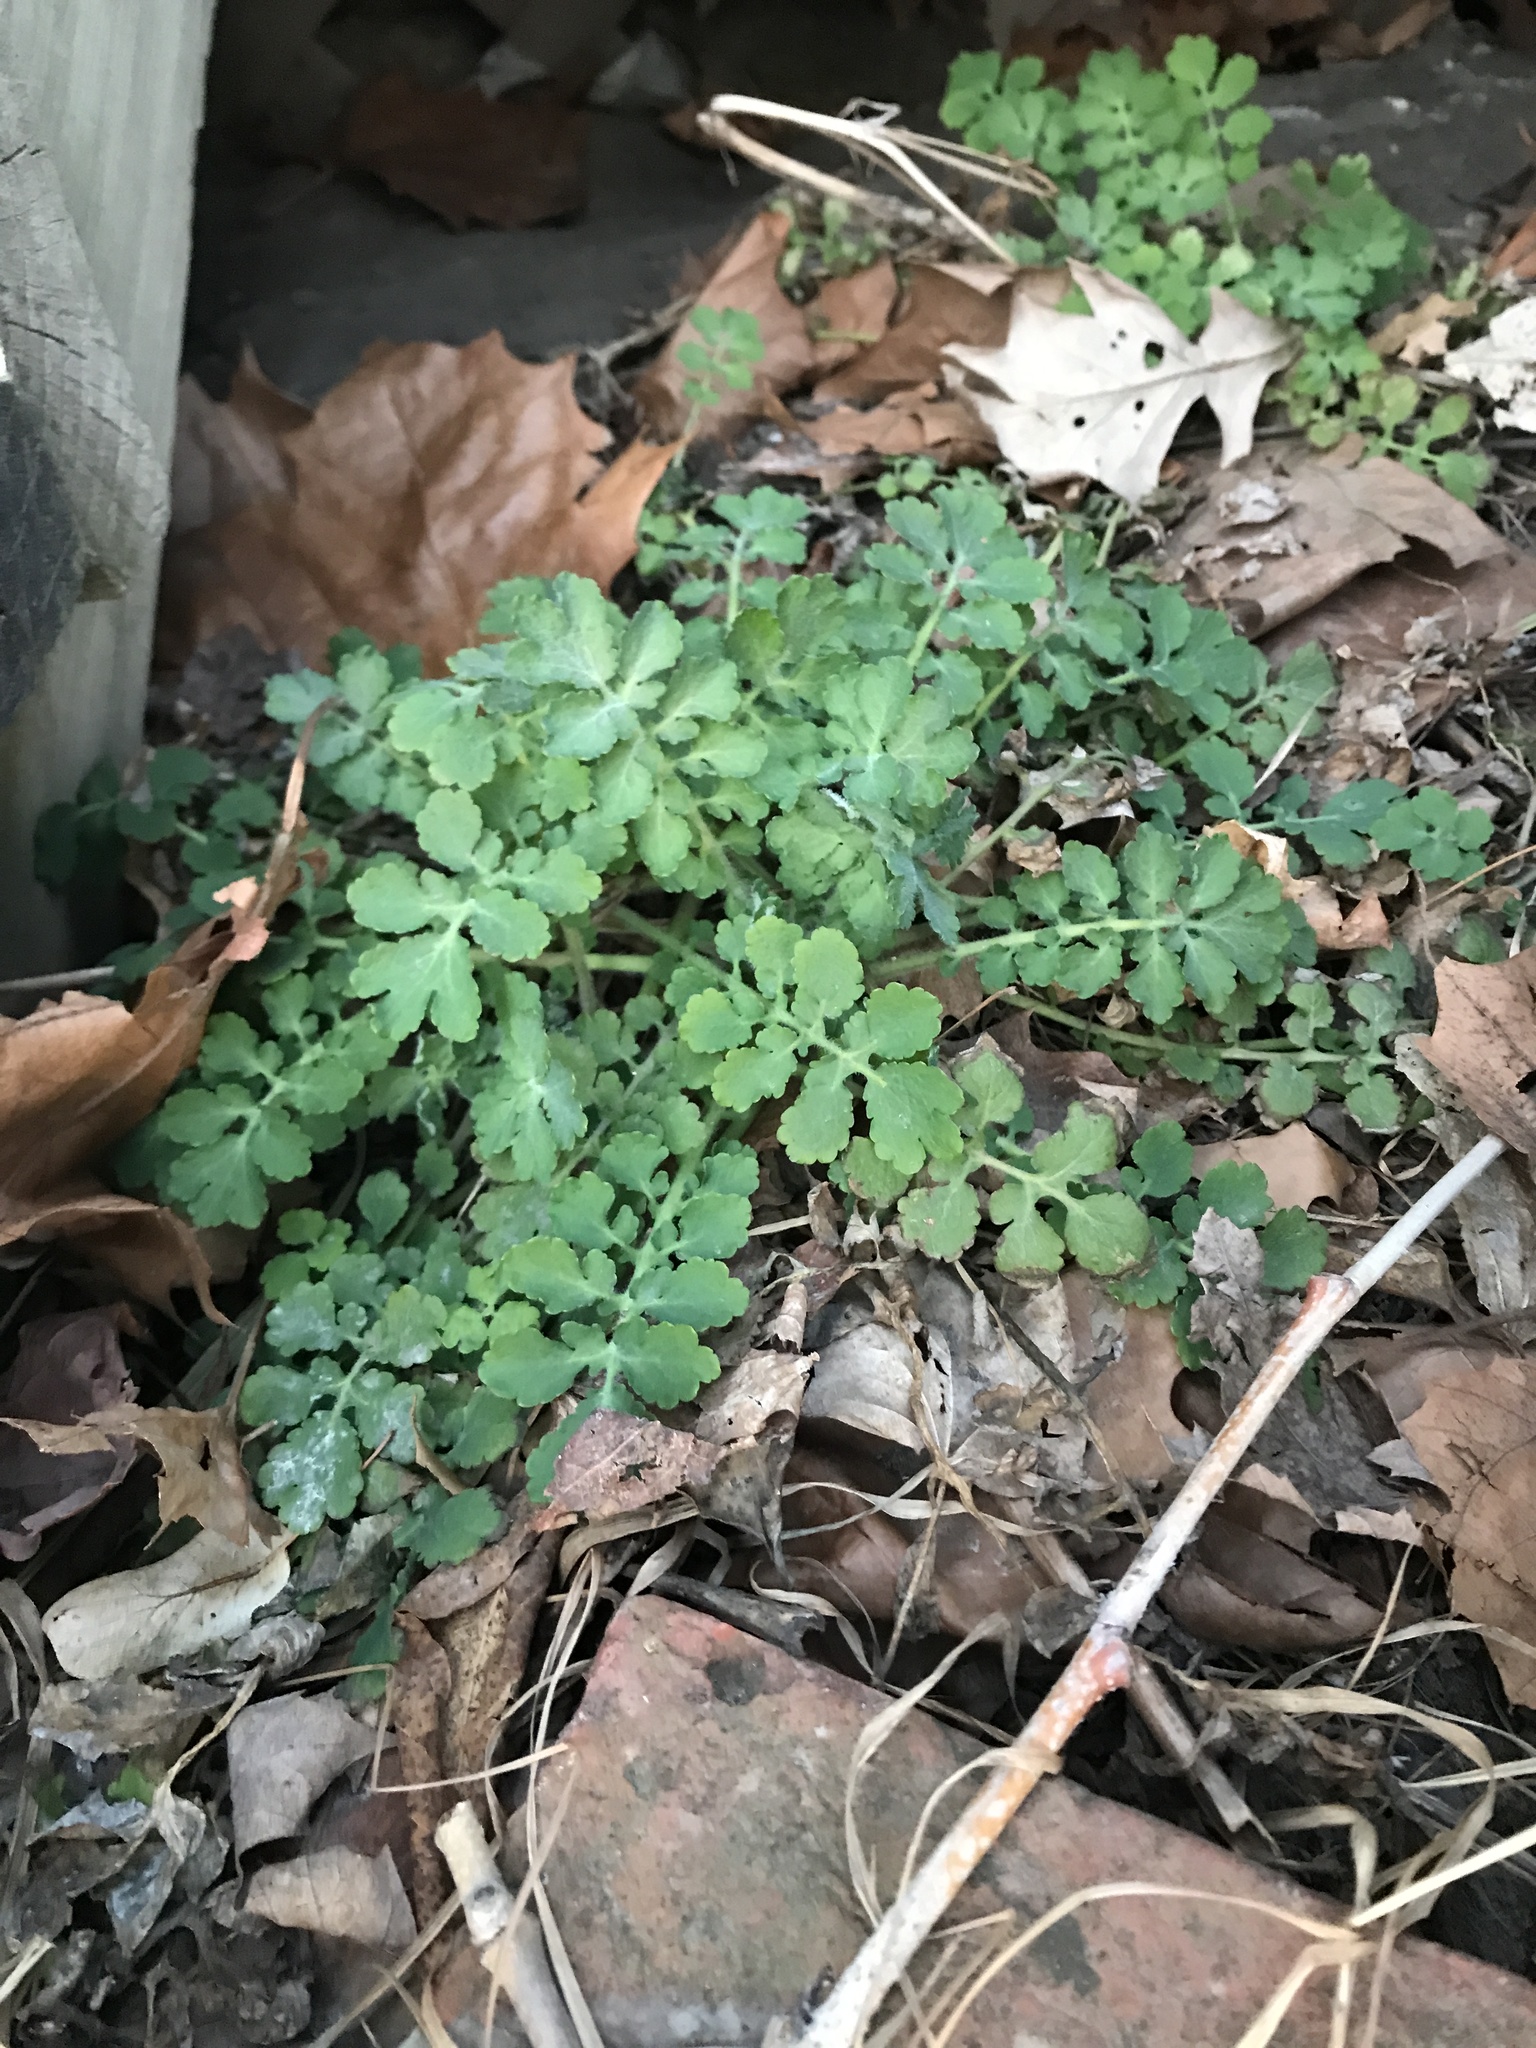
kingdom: Plantae
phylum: Tracheophyta
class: Magnoliopsida
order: Ranunculales
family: Papaveraceae
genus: Chelidonium
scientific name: Chelidonium majus
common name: Greater celandine
